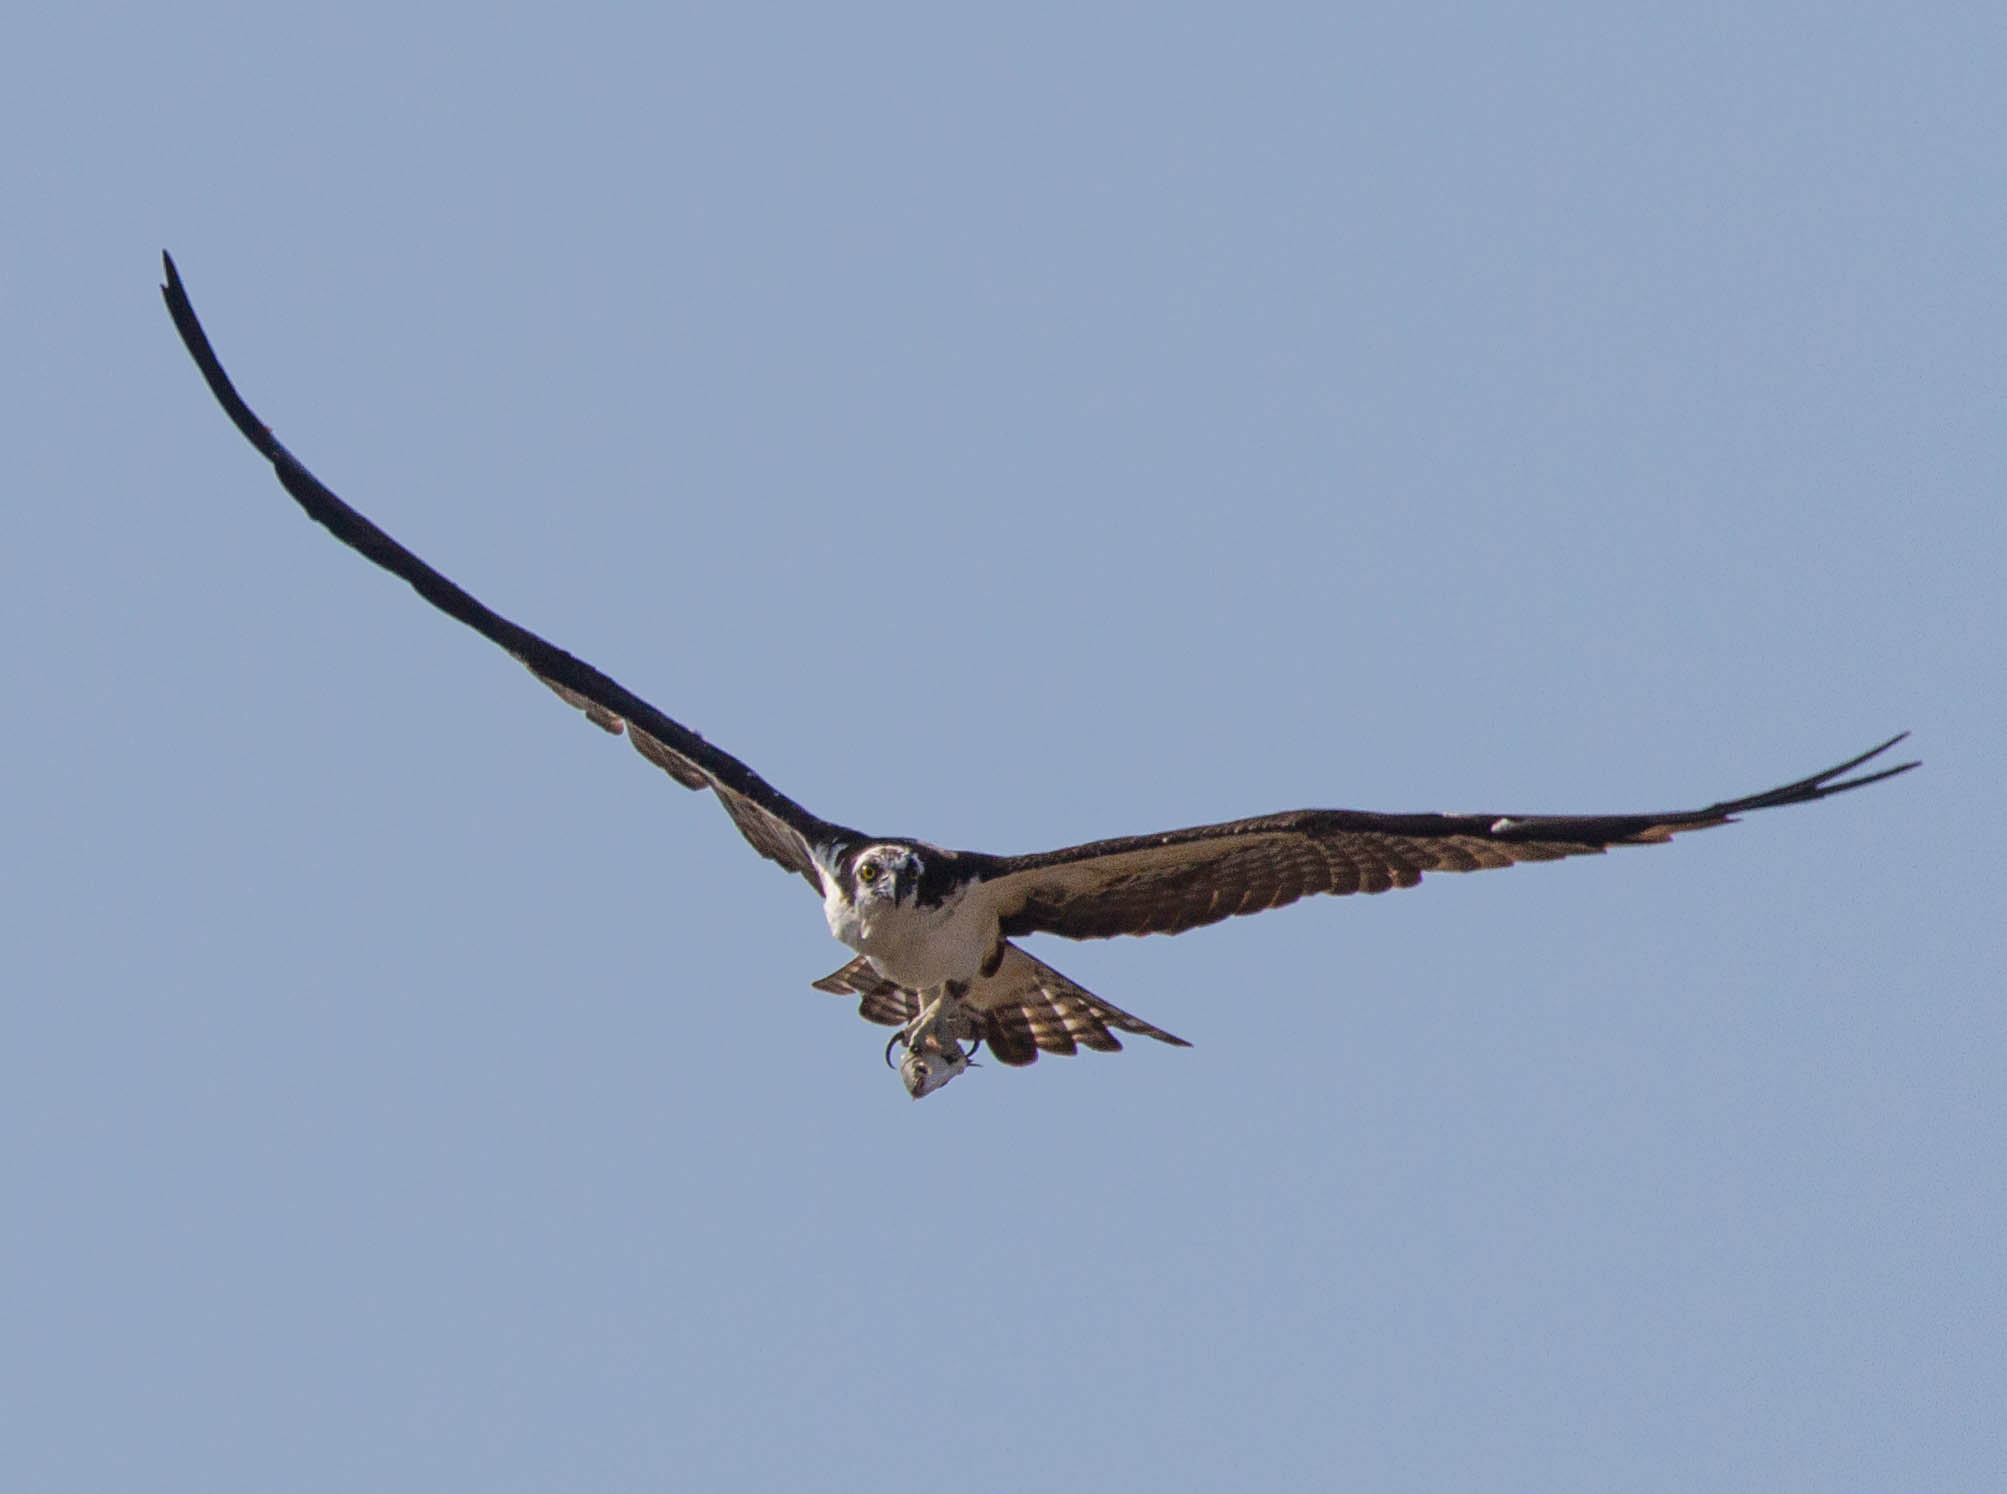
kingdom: Animalia
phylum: Chordata
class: Aves
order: Accipitriformes
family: Pandionidae
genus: Pandion
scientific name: Pandion haliaetus
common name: Osprey
